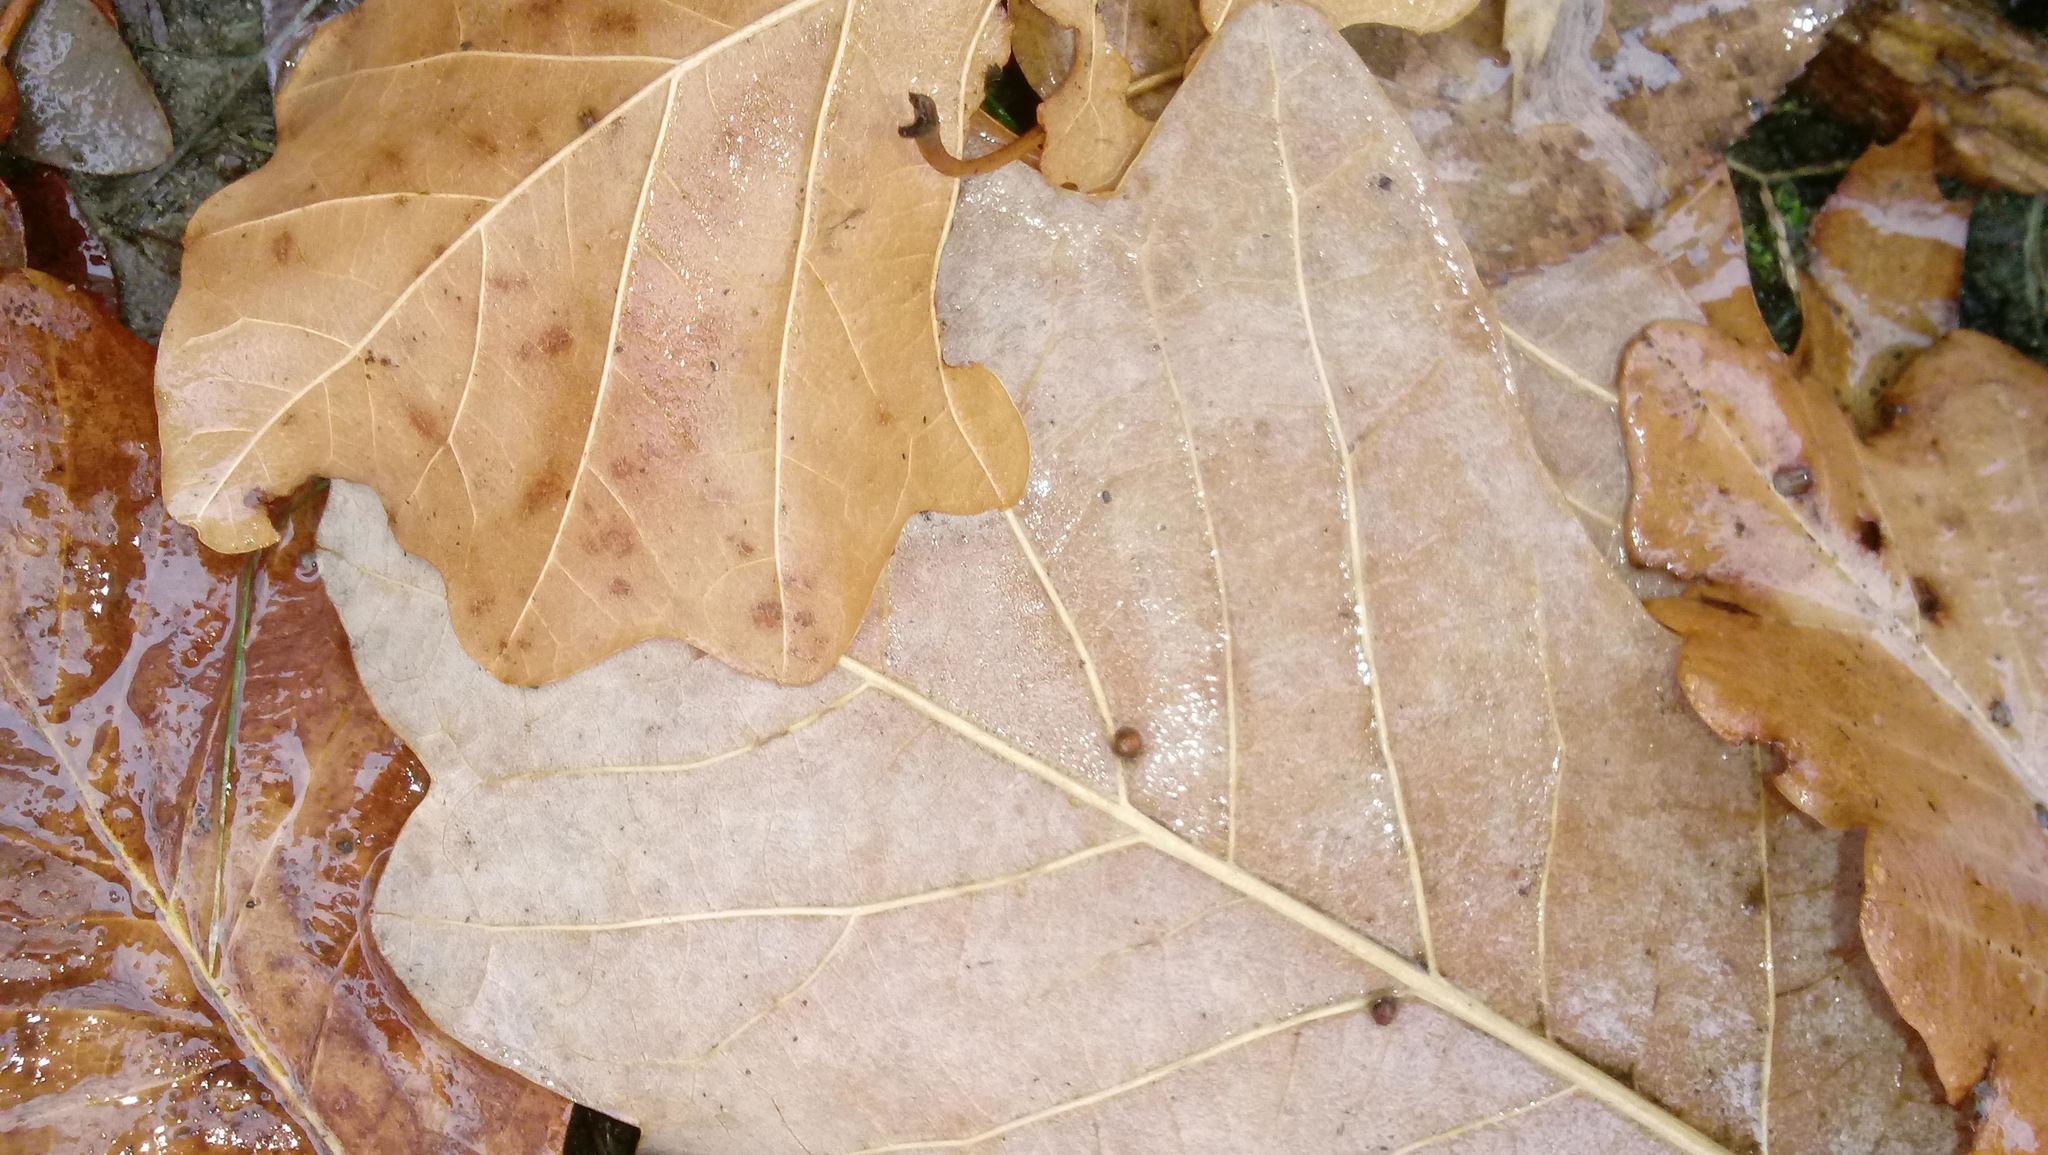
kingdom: Animalia
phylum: Arthropoda
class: Insecta
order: Hymenoptera
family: Cynipidae
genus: Andricus
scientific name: Andricus Druon ignotum
